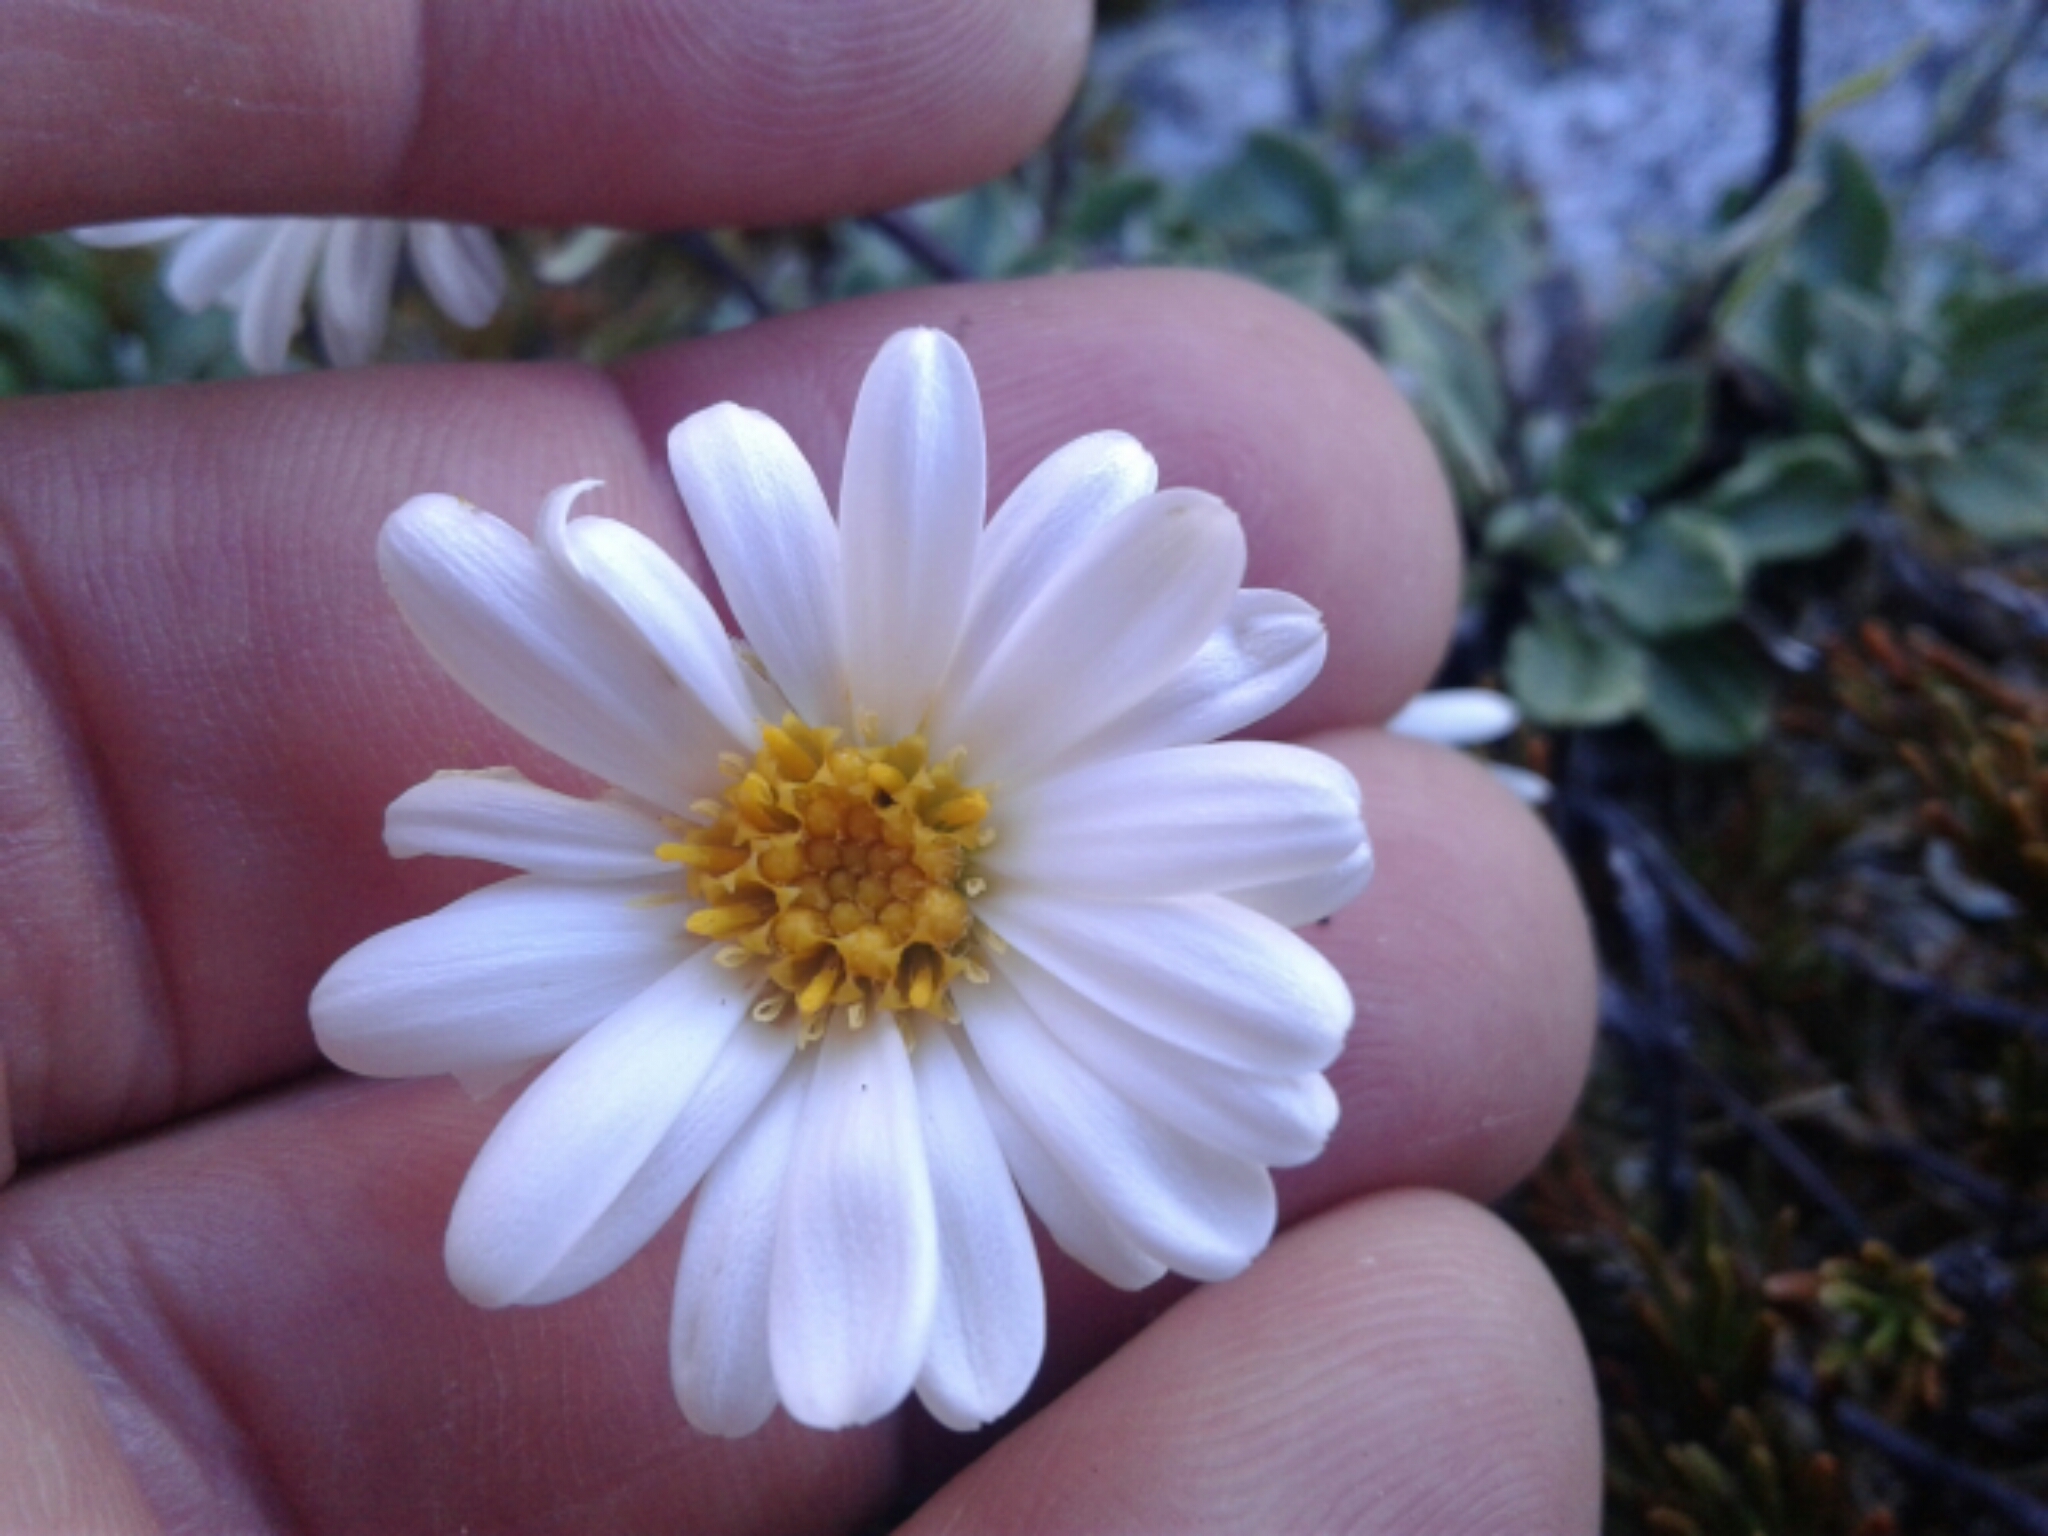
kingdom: Plantae
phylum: Tracheophyta
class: Magnoliopsida
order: Asterales
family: Asteraceae
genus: Celmisia
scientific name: Celmisia discolor
